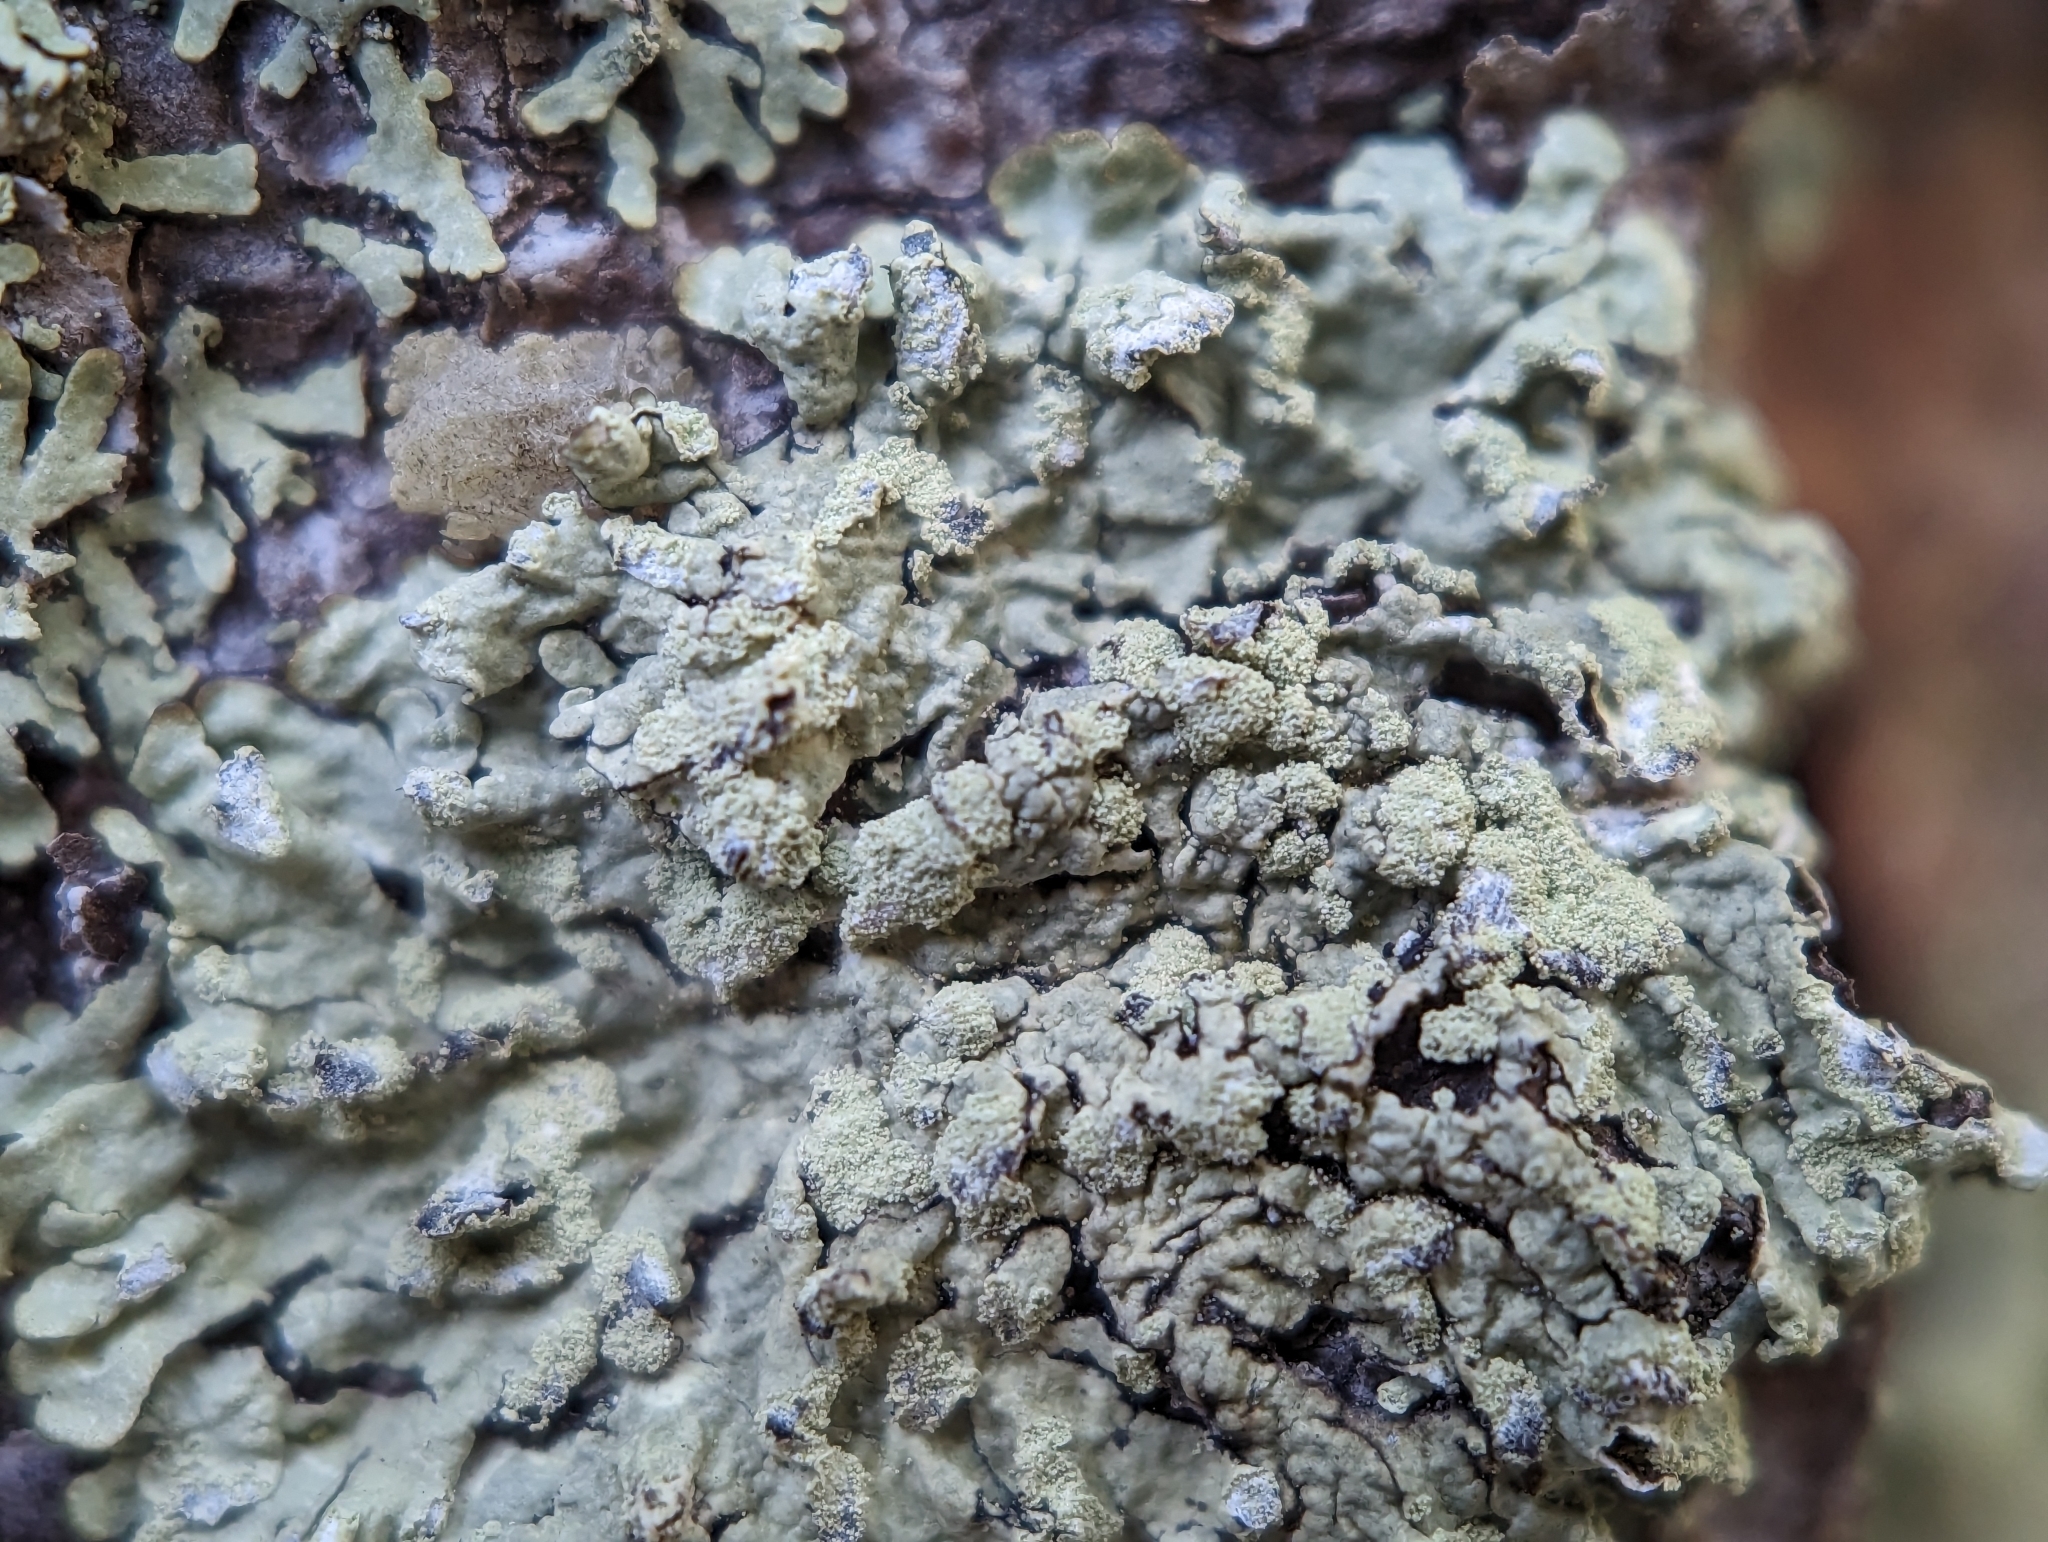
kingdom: Fungi
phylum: Ascomycota
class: Lecanoromycetes
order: Lecanorales
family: Parmeliaceae
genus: Parmeliopsis
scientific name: Parmeliopsis ambigua
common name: Green starburst lichen
